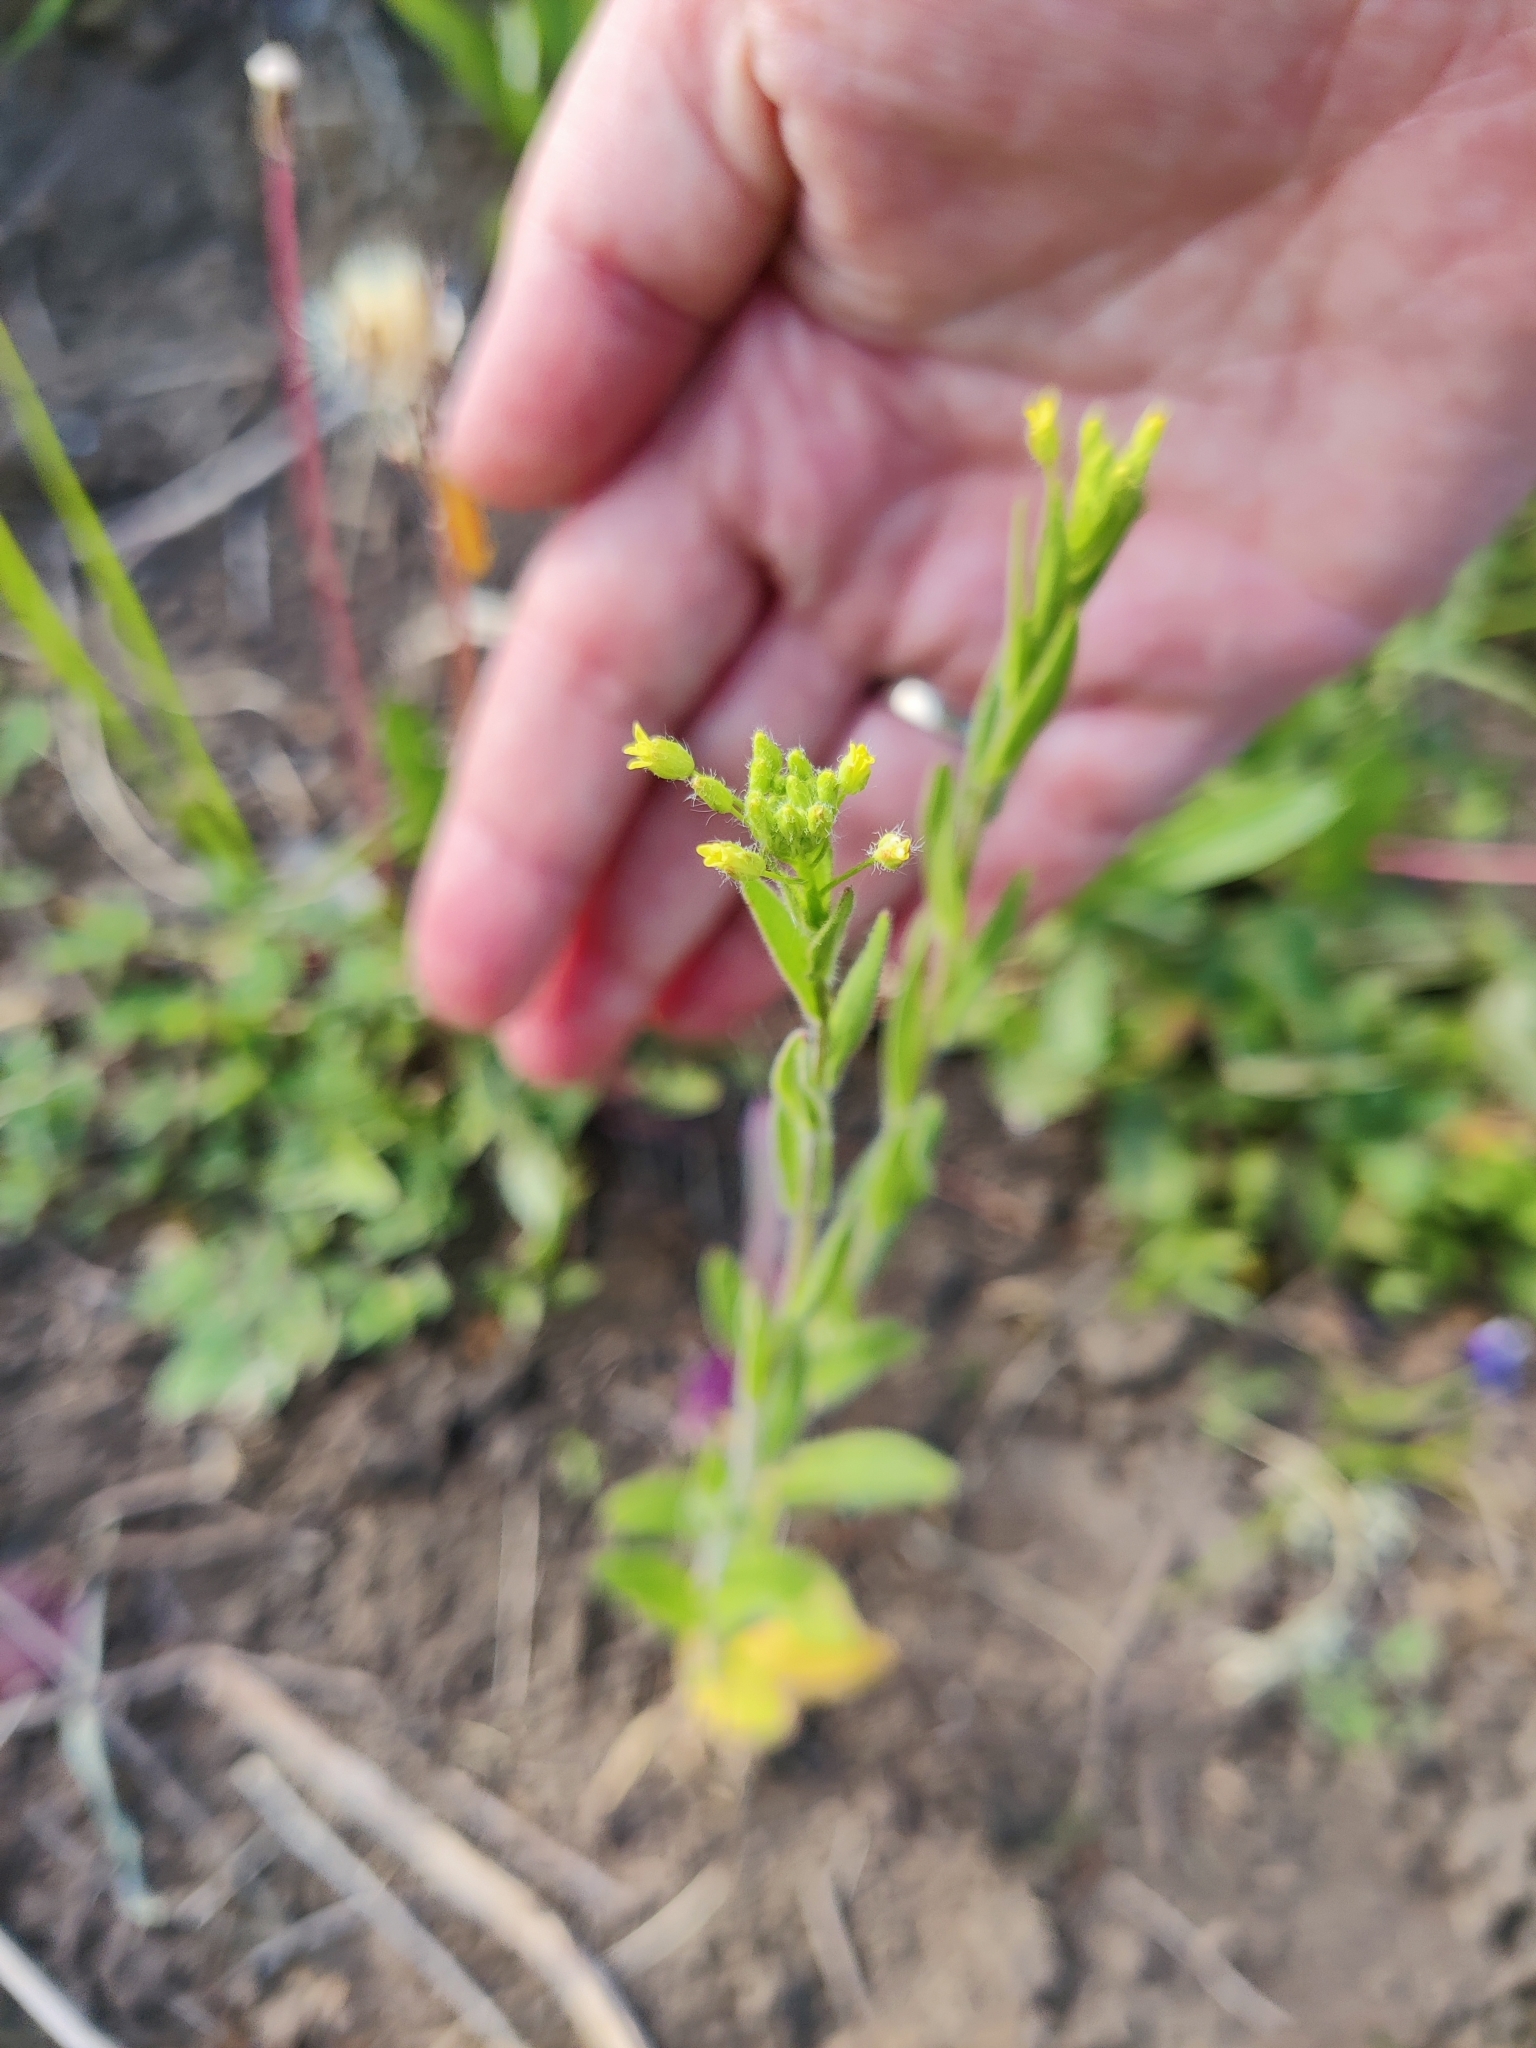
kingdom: Plantae
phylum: Tracheophyta
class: Magnoliopsida
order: Brassicales
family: Brassicaceae
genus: Camelina
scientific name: Camelina microcarpa
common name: Lesser gold-of-pleasure
